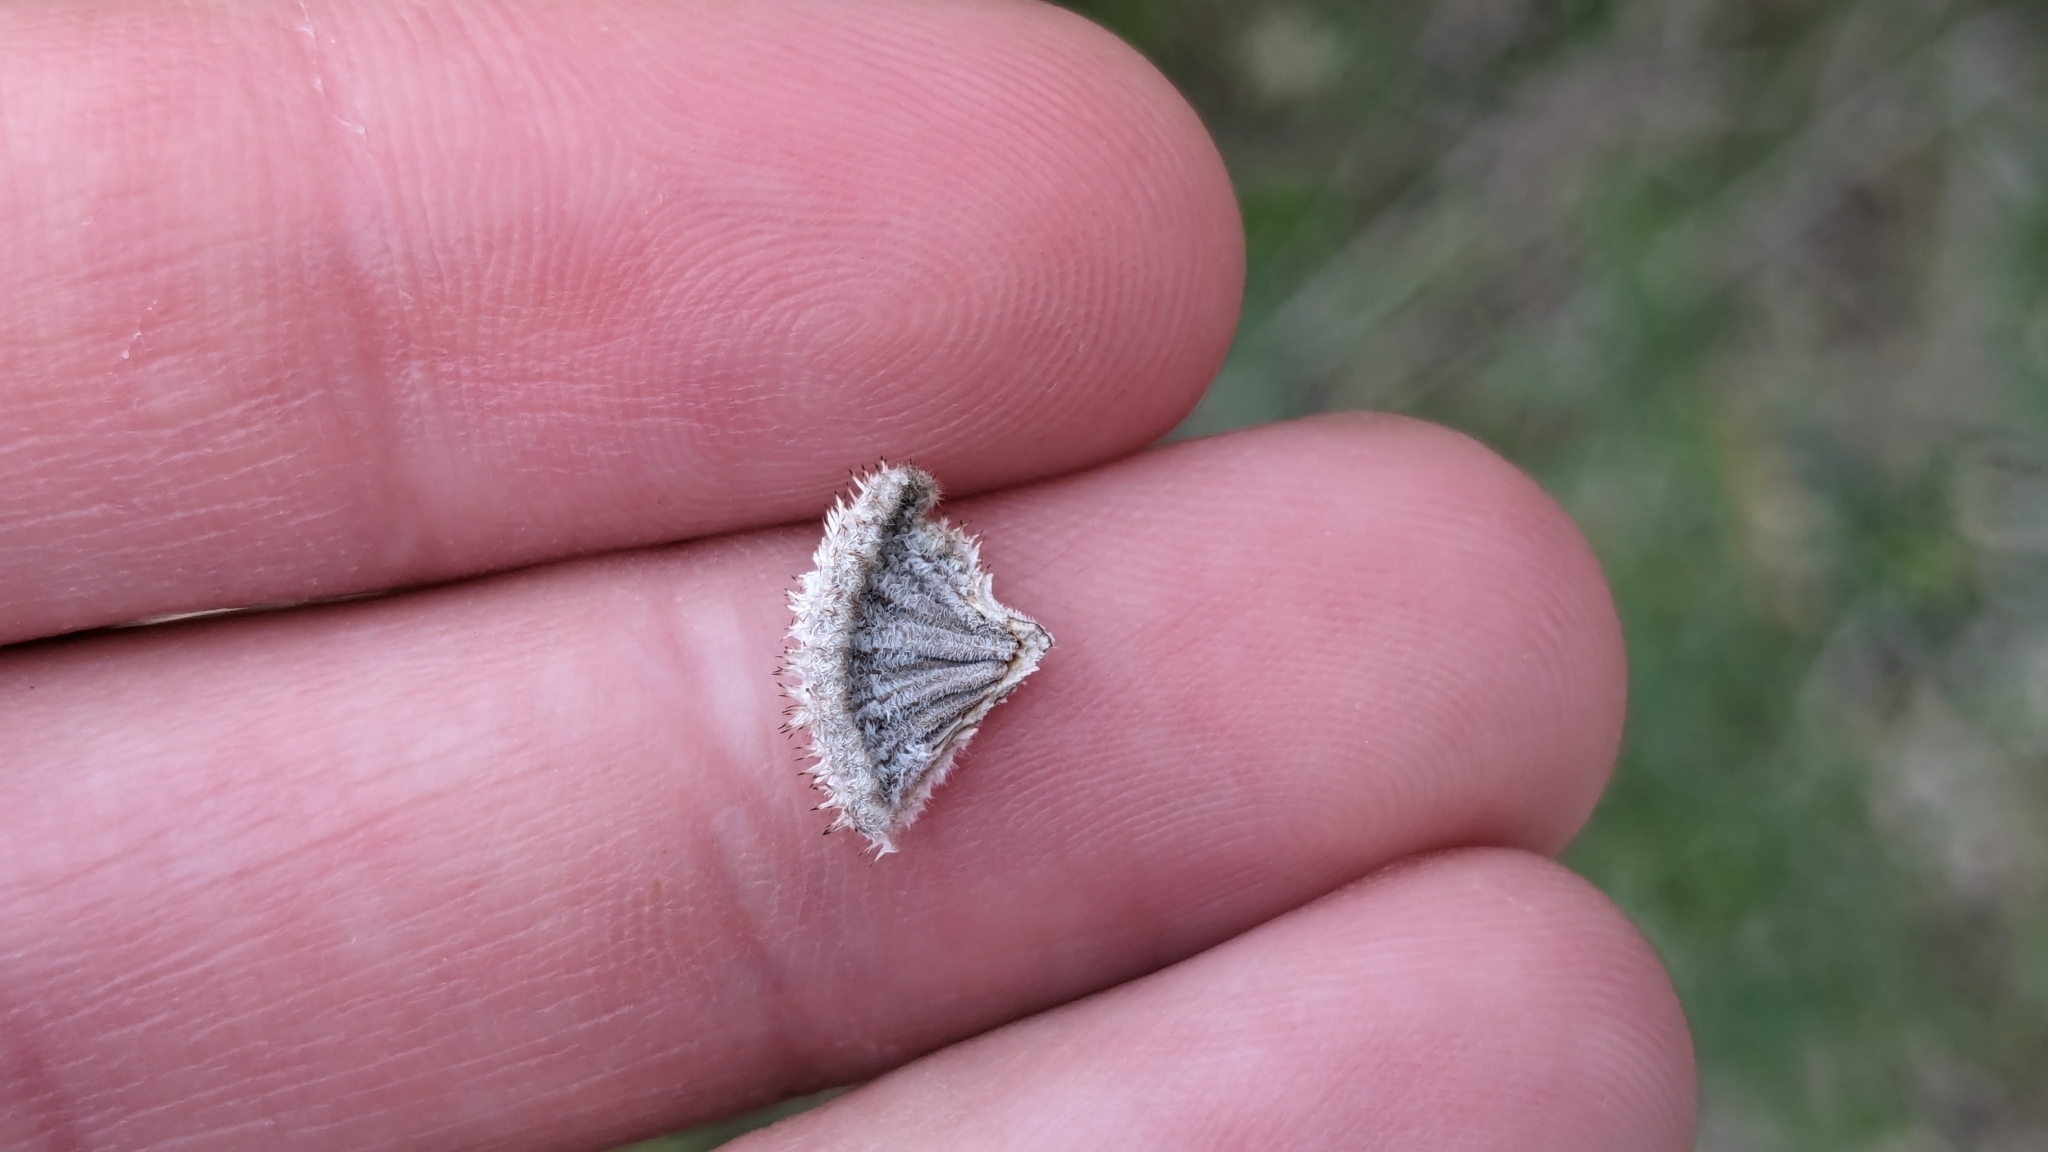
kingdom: Fungi
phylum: Basidiomycota
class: Agaricomycetes
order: Agaricales
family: Schizophyllaceae
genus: Schizophyllum
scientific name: Schizophyllum commune
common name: Common porecrust
